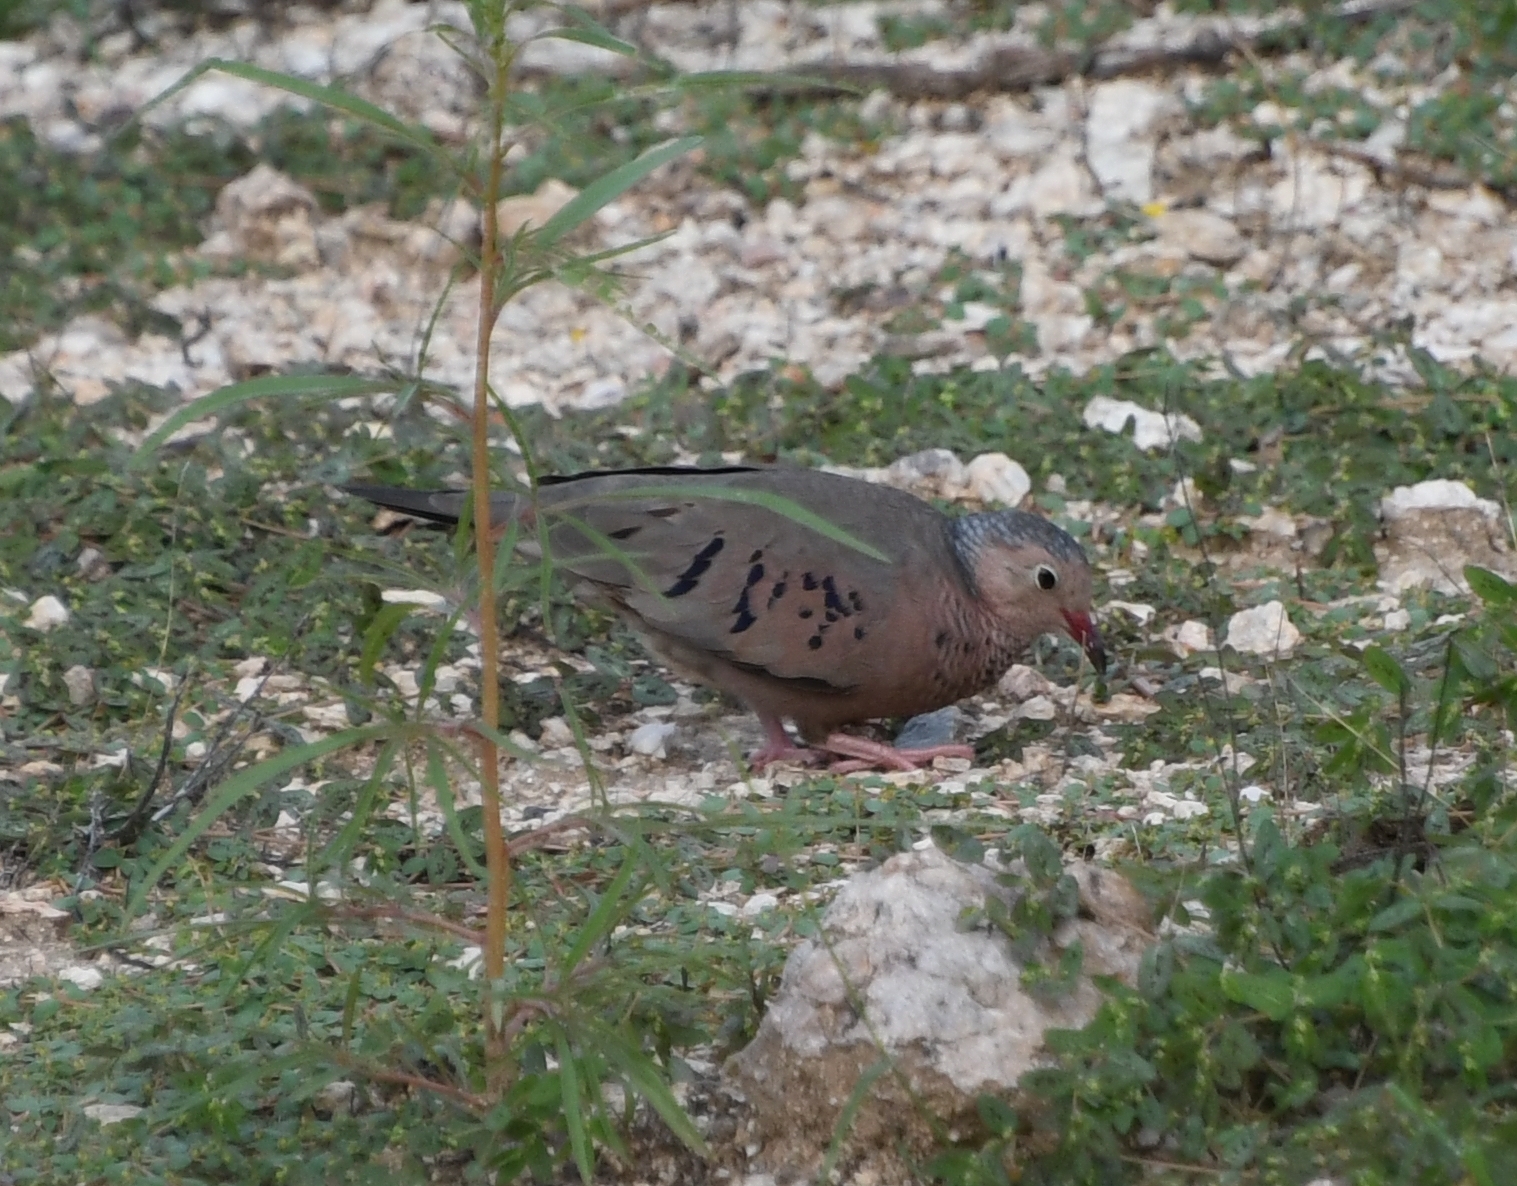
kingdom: Animalia
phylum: Chordata
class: Aves
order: Columbiformes
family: Columbidae
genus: Columbina
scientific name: Columbina passerina
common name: Common ground-dove
